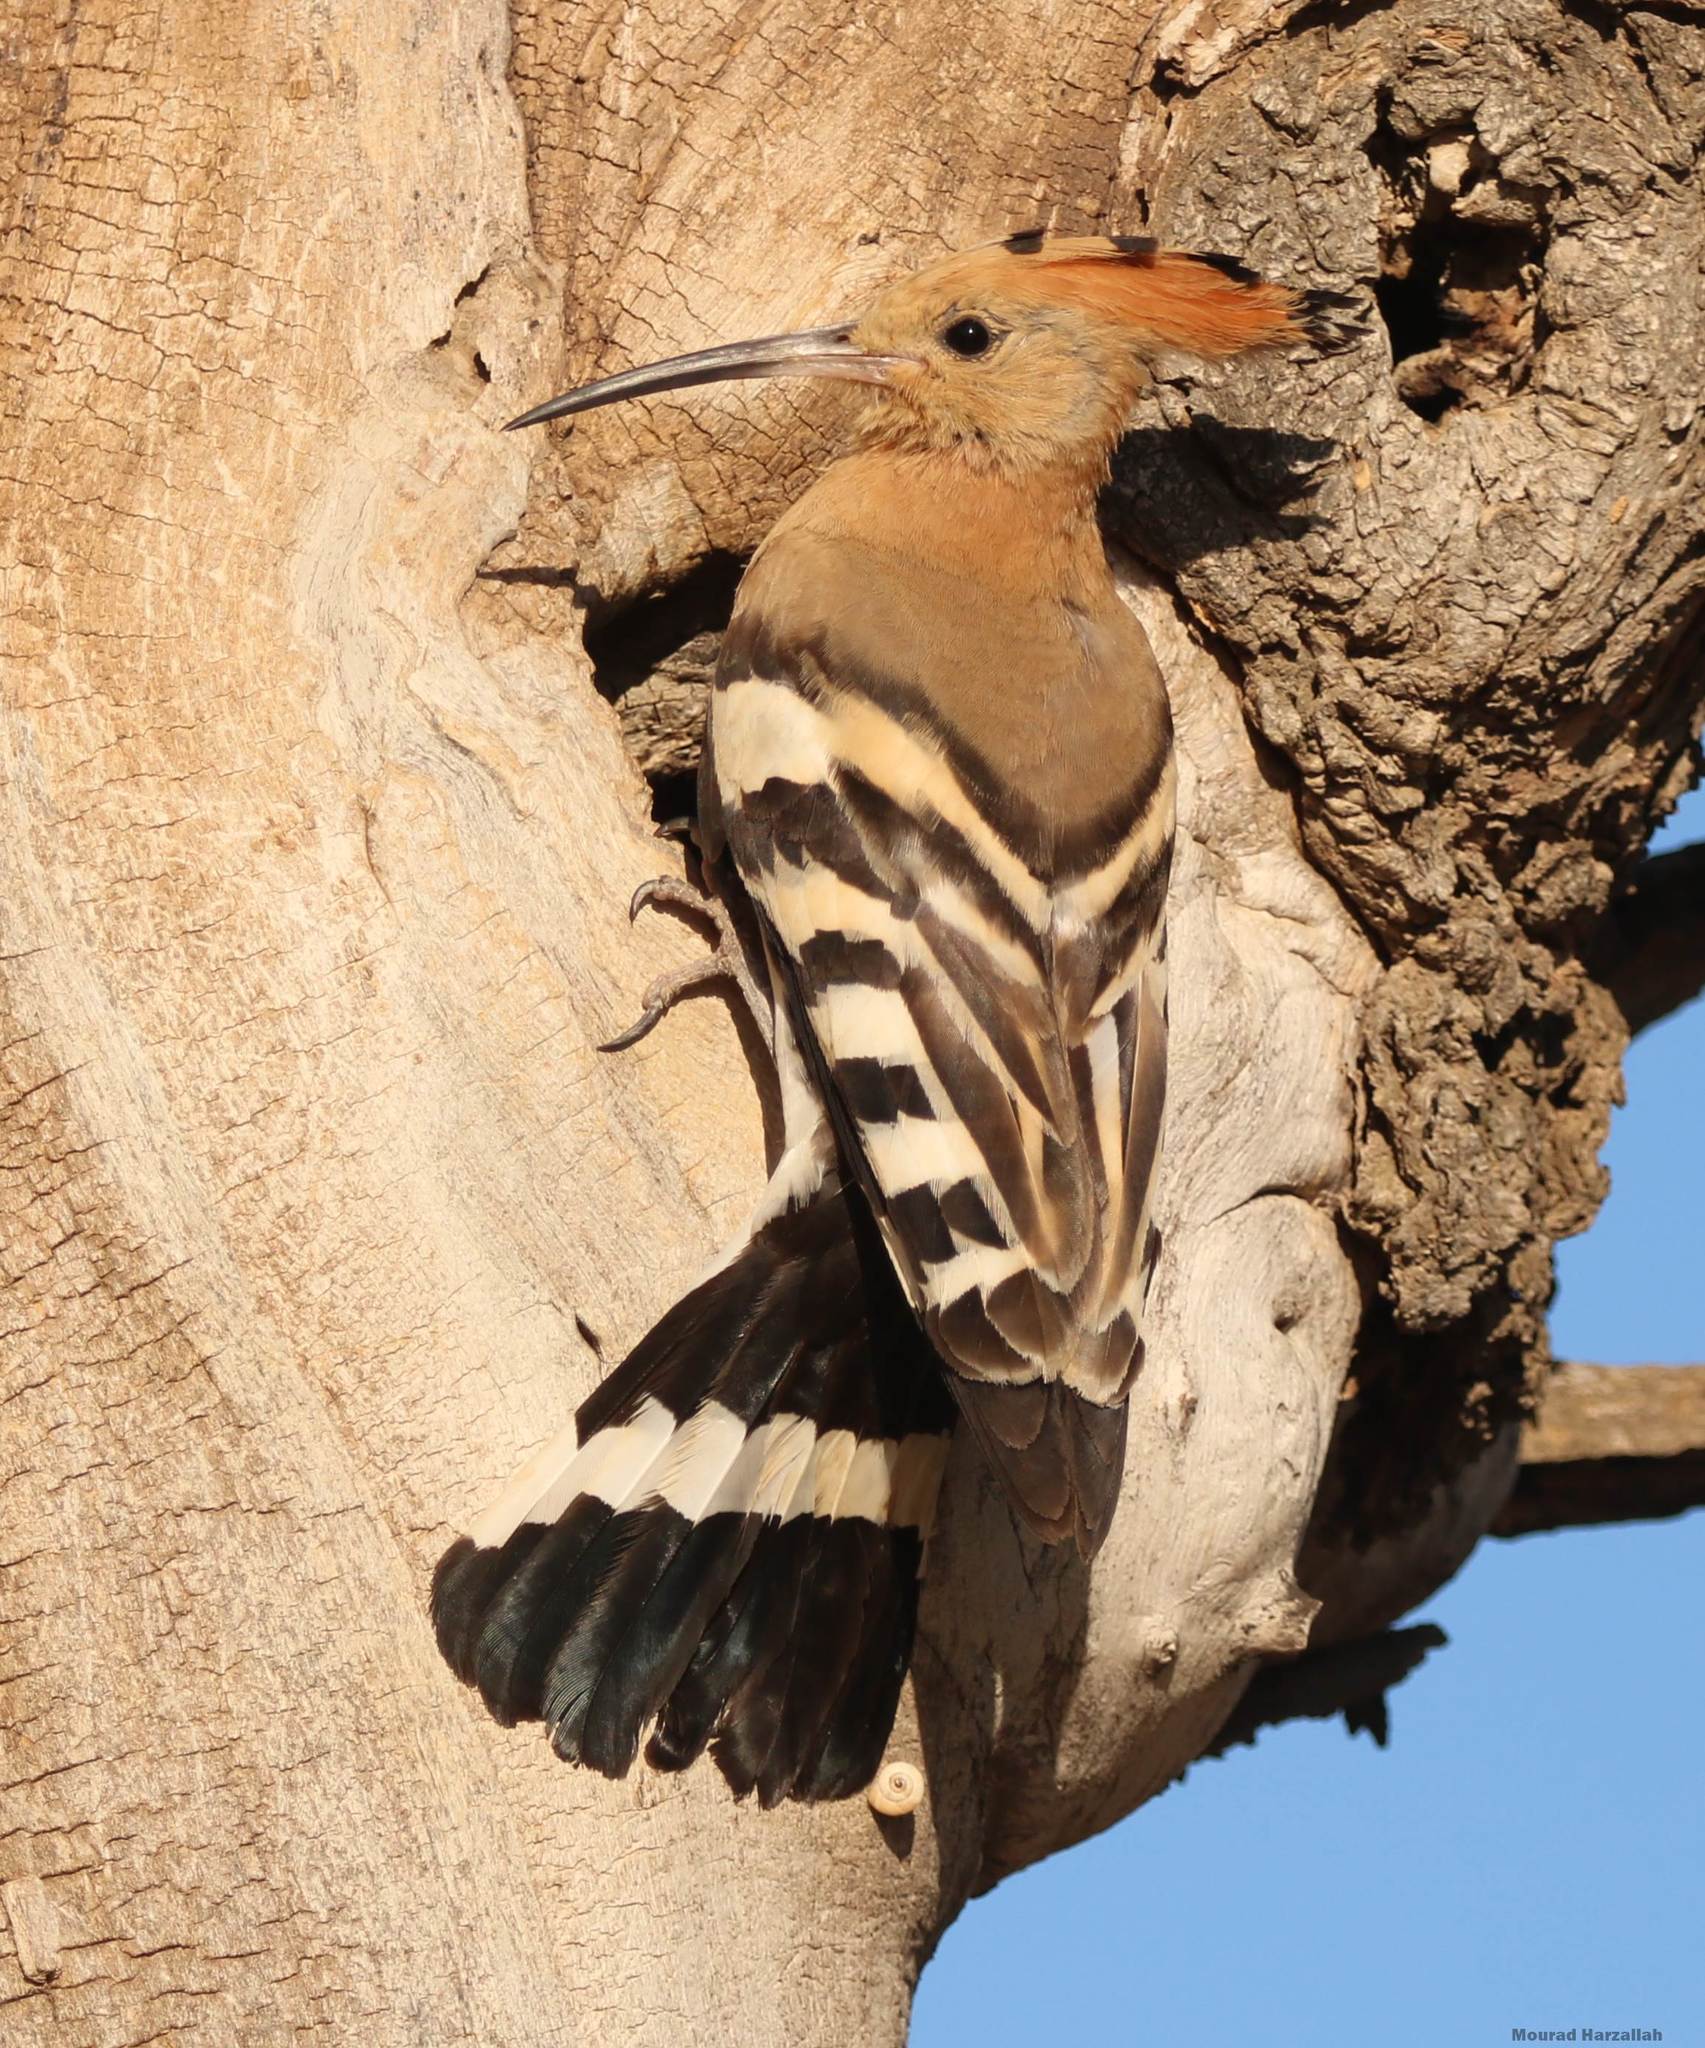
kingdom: Animalia
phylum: Chordata
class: Aves
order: Bucerotiformes
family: Upupidae
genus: Upupa
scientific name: Upupa epops
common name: Eurasian hoopoe
